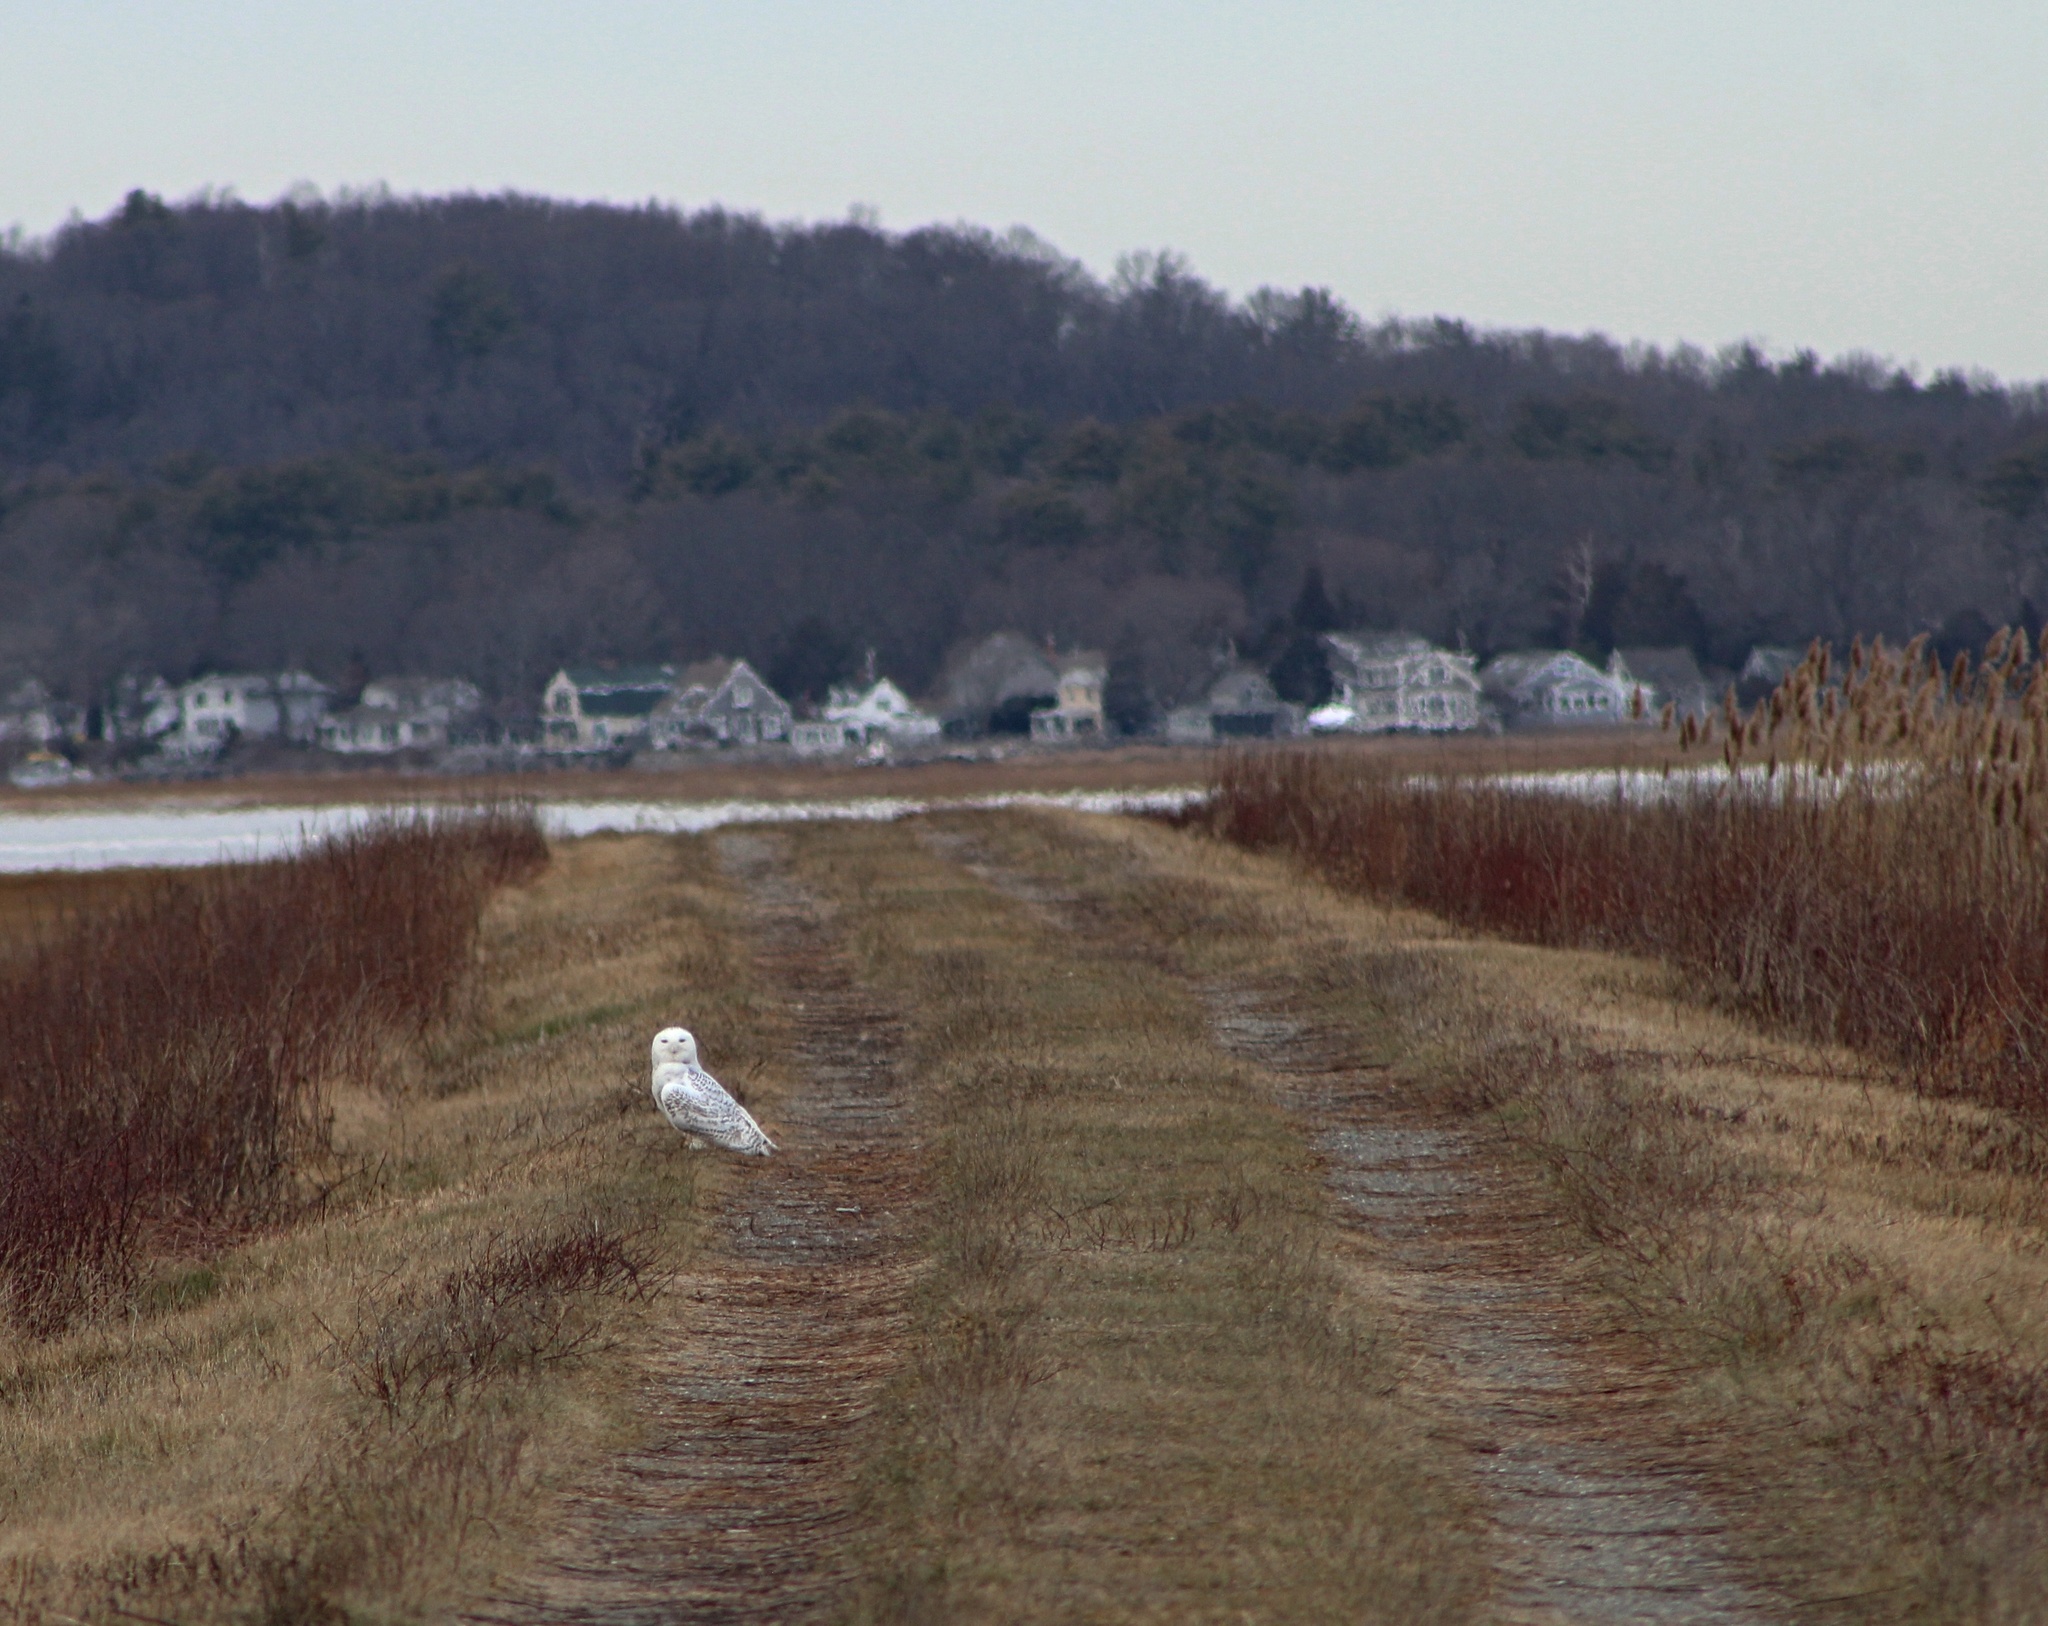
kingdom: Animalia
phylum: Chordata
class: Aves
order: Strigiformes
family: Strigidae
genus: Bubo
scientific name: Bubo scandiacus
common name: Snowy owl
